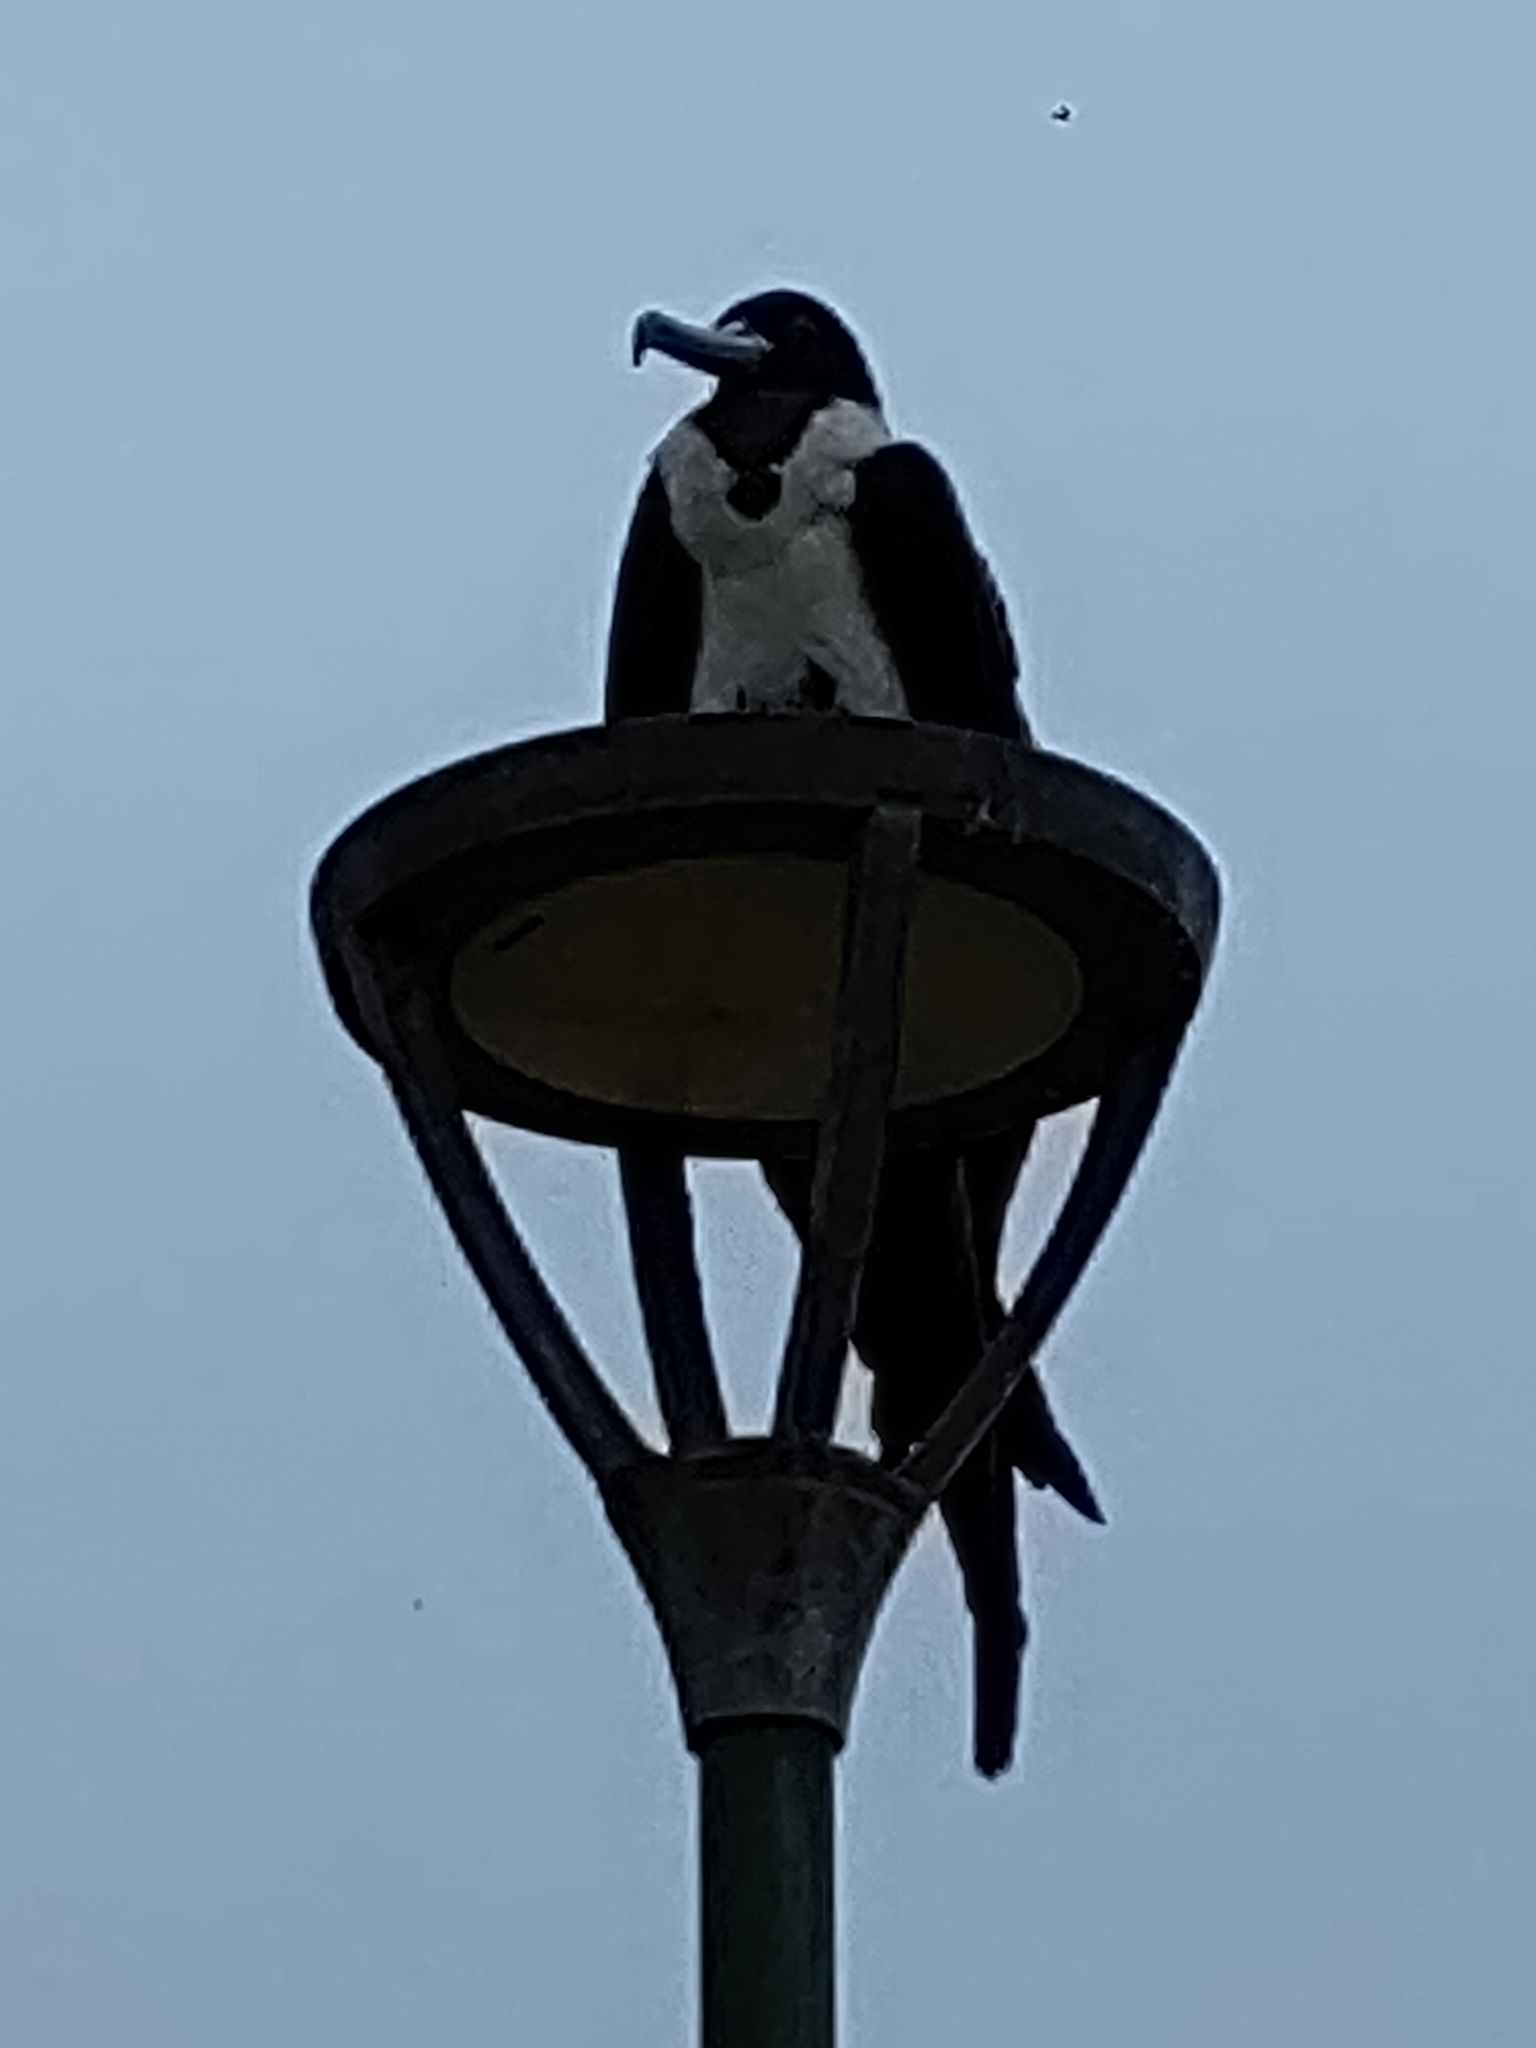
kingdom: Animalia
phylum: Chordata
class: Aves
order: Suliformes
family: Fregatidae
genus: Fregata
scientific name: Fregata magnificens
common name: Magnificent frigatebird
